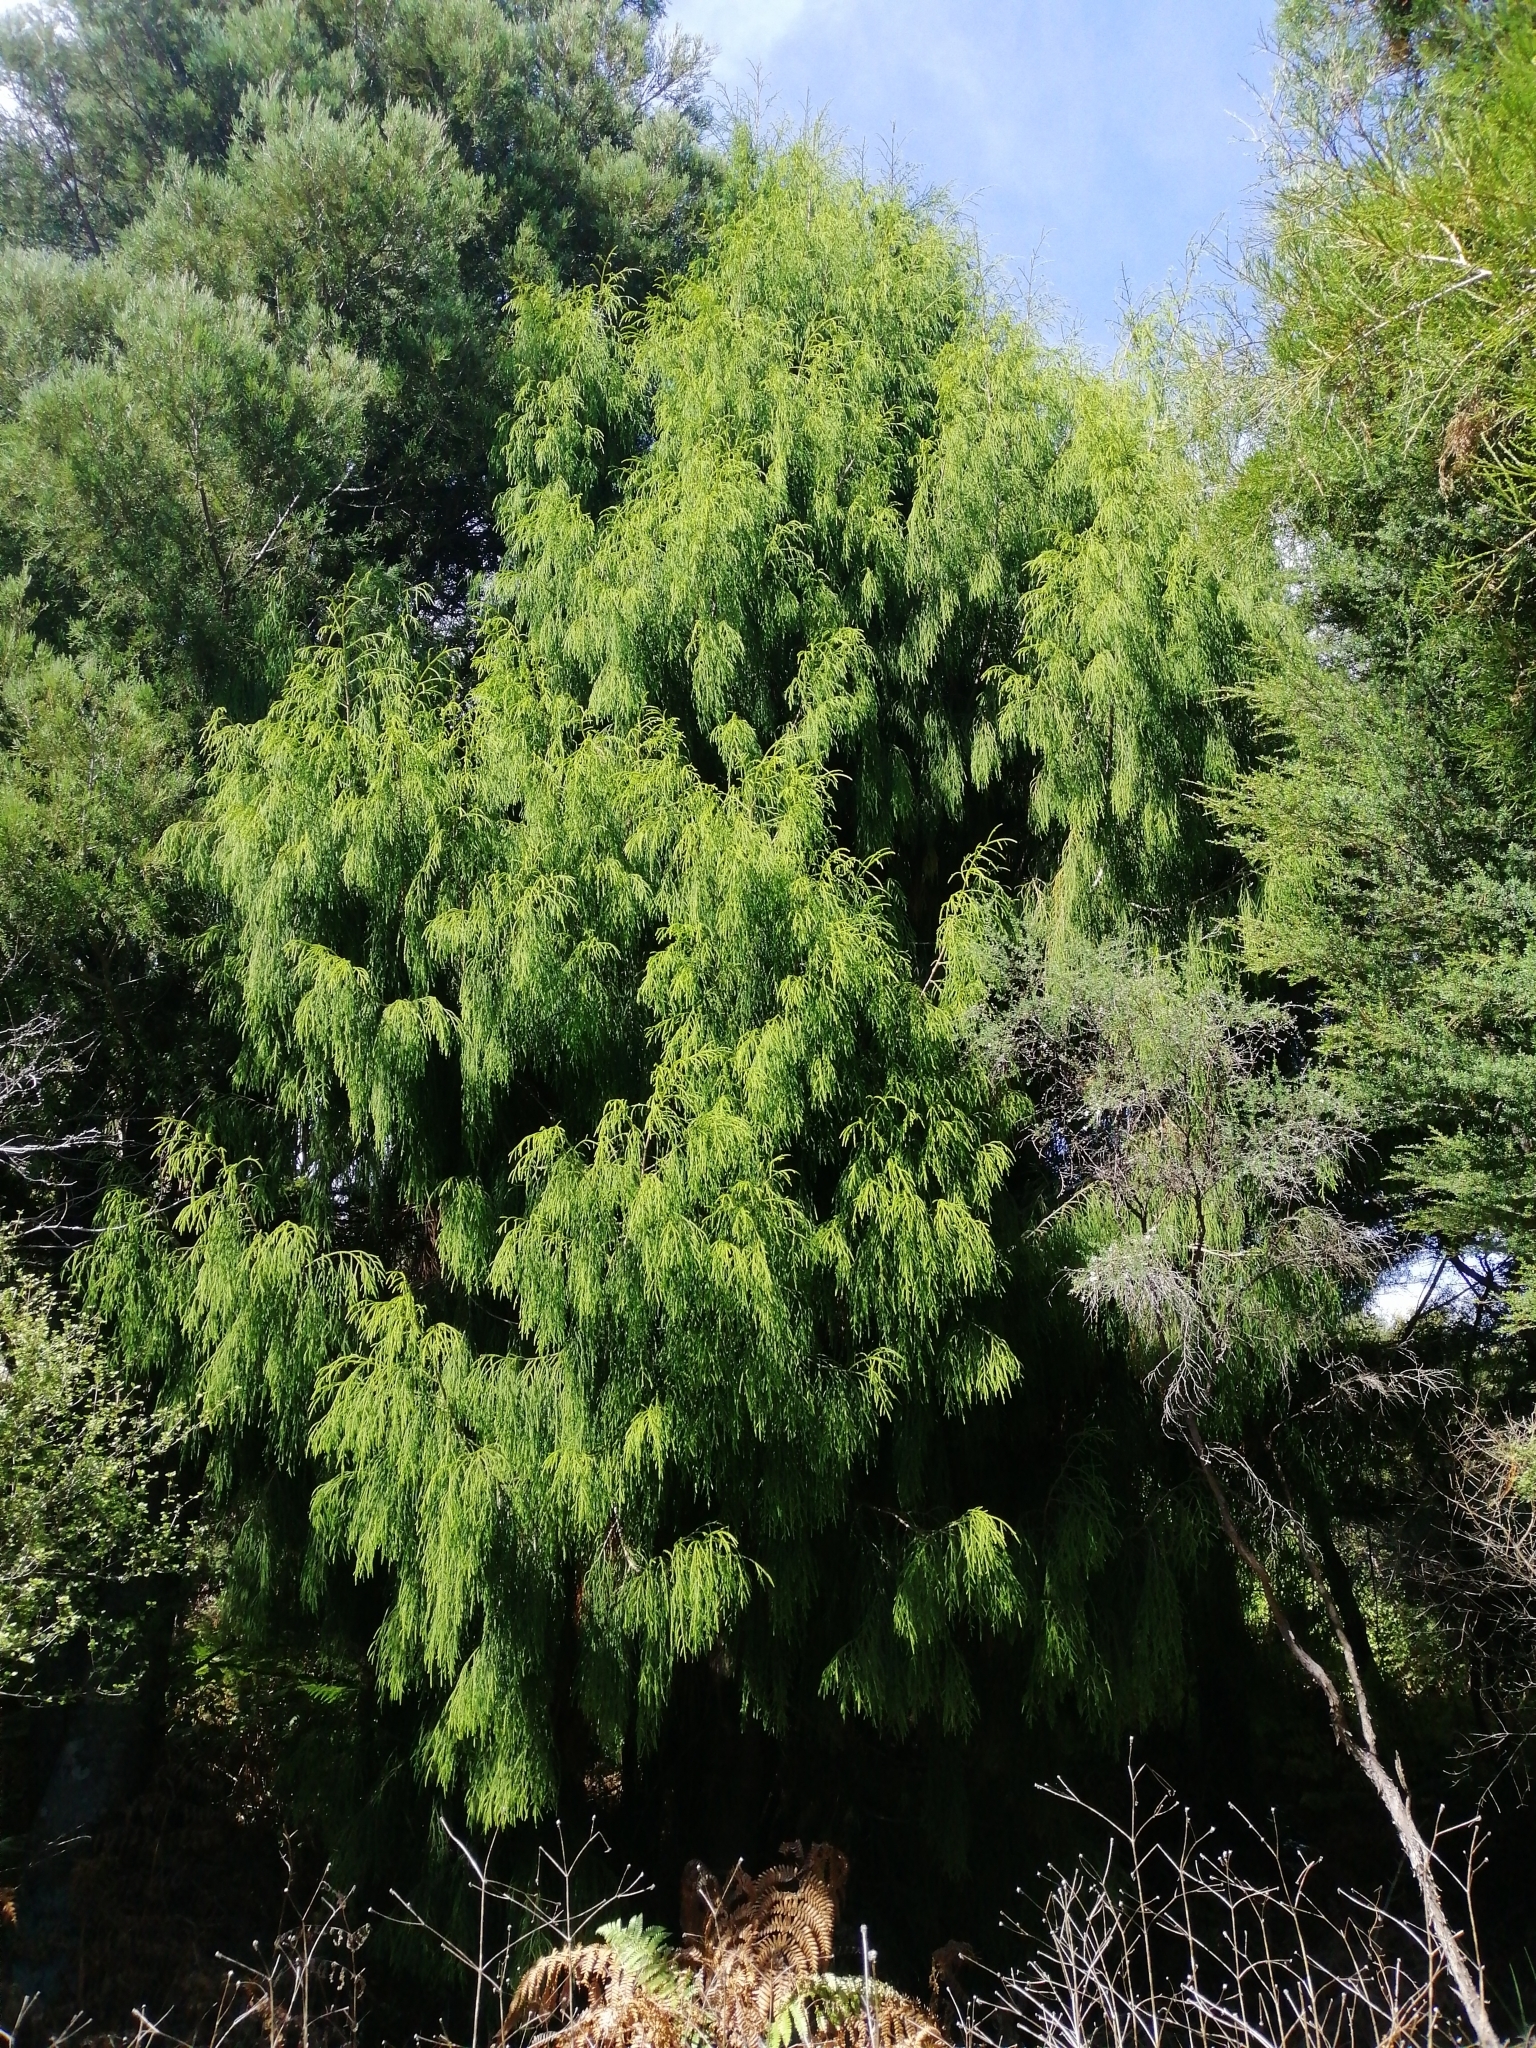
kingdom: Plantae
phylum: Tracheophyta
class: Pinopsida
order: Pinales
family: Podocarpaceae
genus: Dacrydium
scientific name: Dacrydium cupressinum
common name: Red pine
